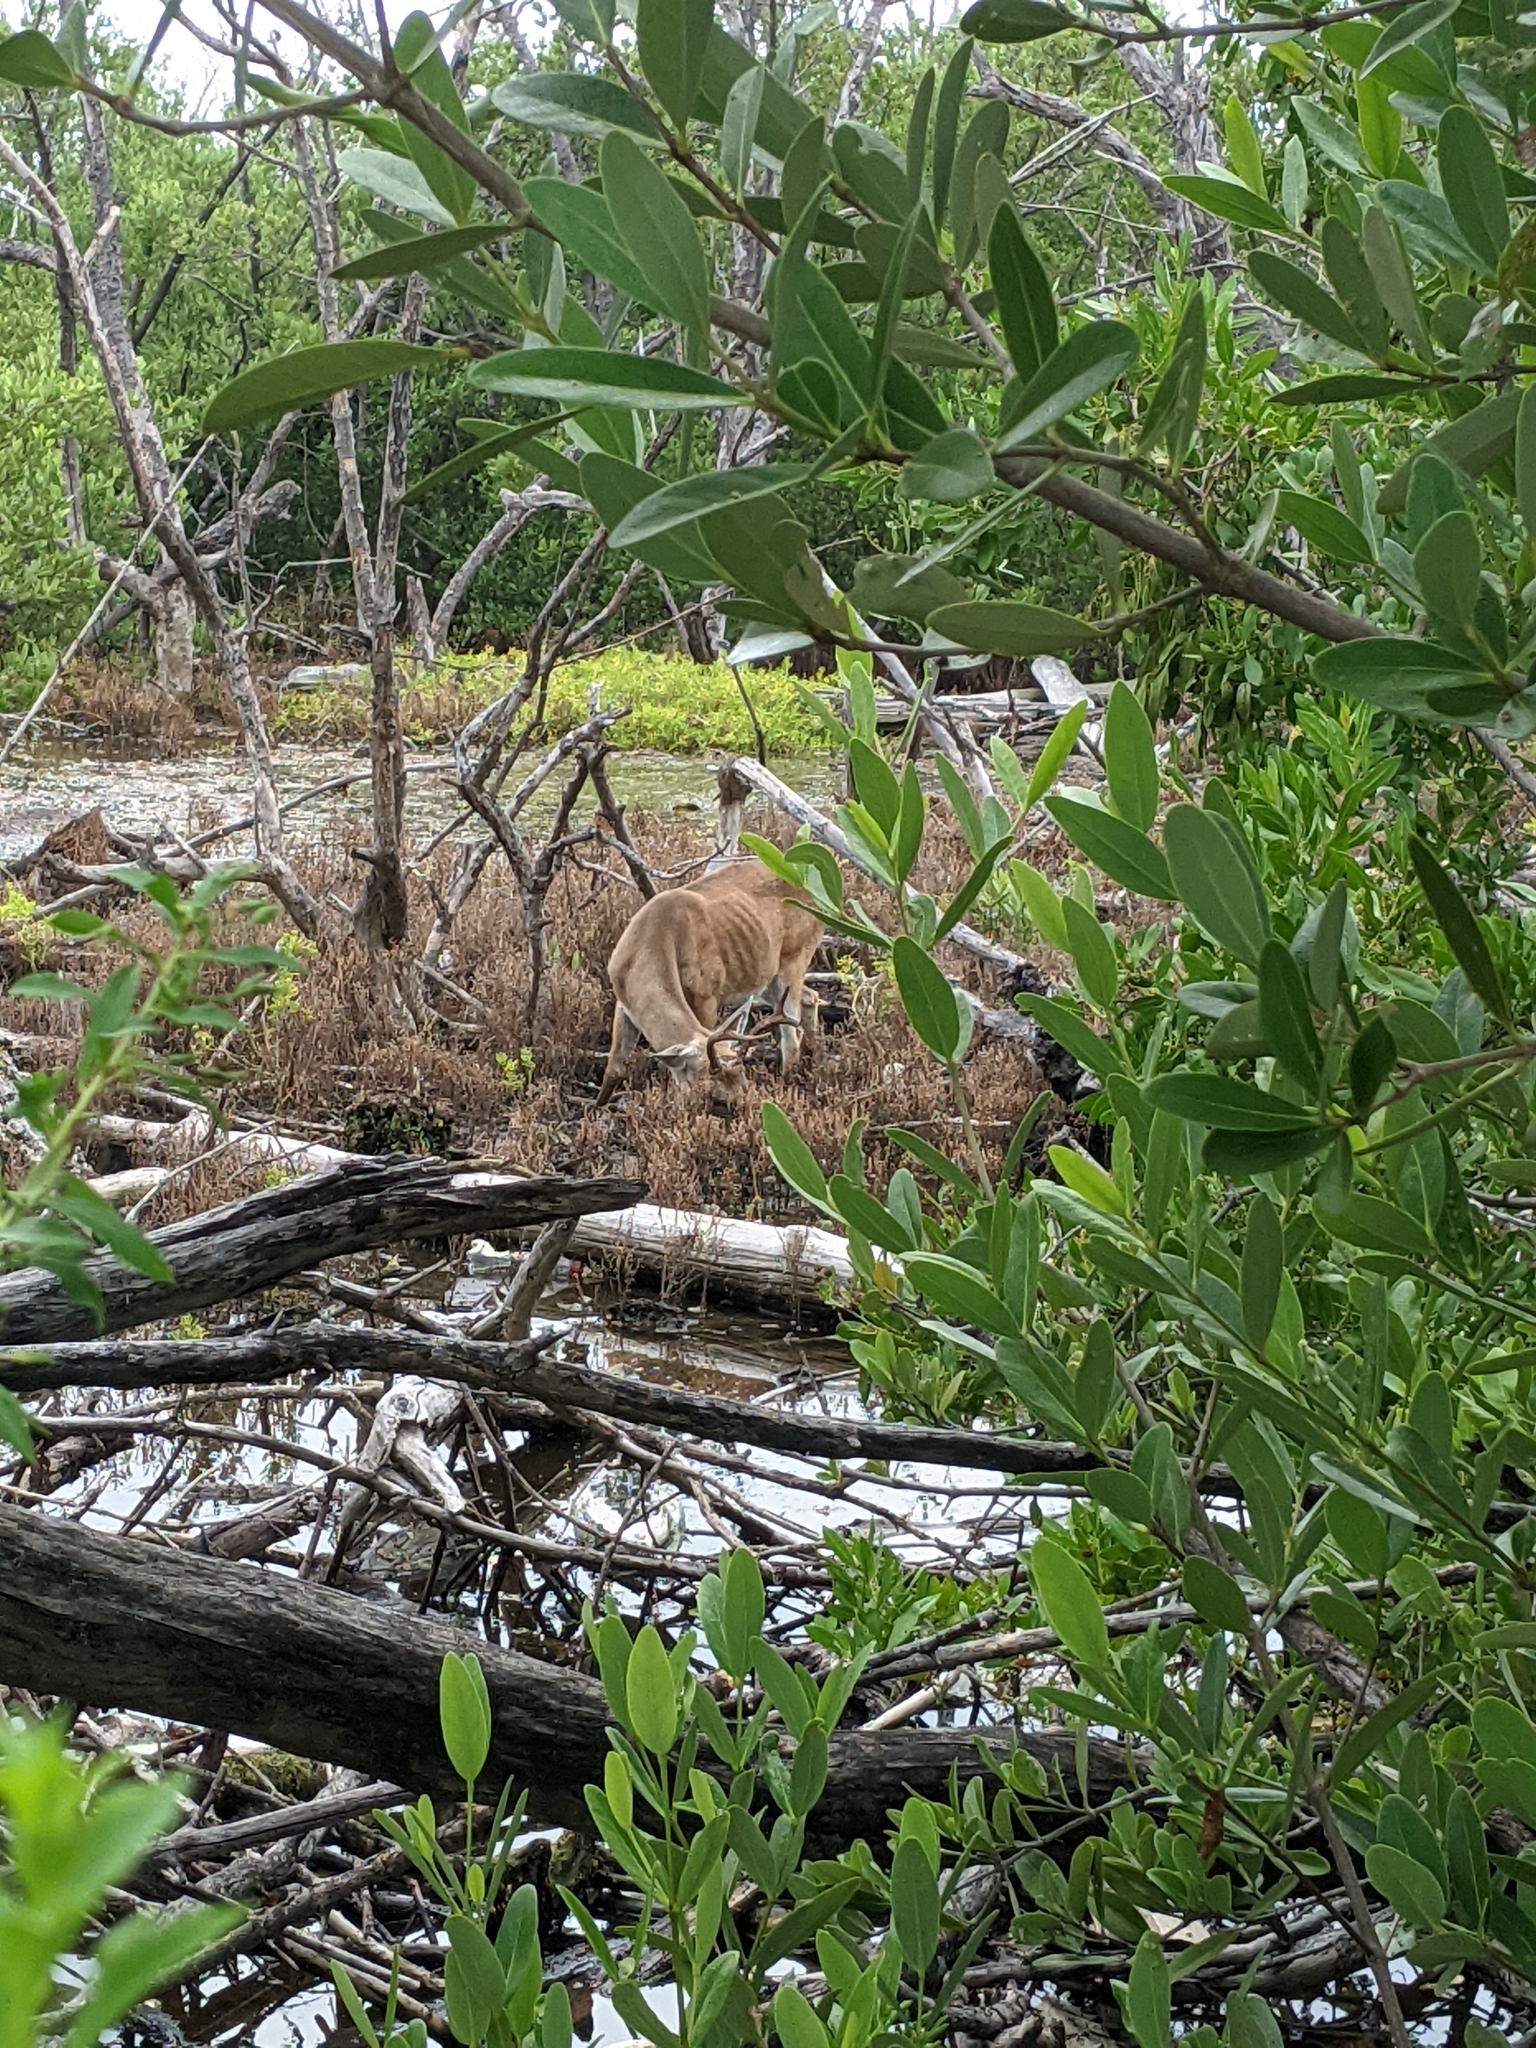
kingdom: Animalia
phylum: Chordata
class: Mammalia
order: Artiodactyla
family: Cervidae
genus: Odocoileus
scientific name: Odocoileus virginianus
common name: White-tailed deer
